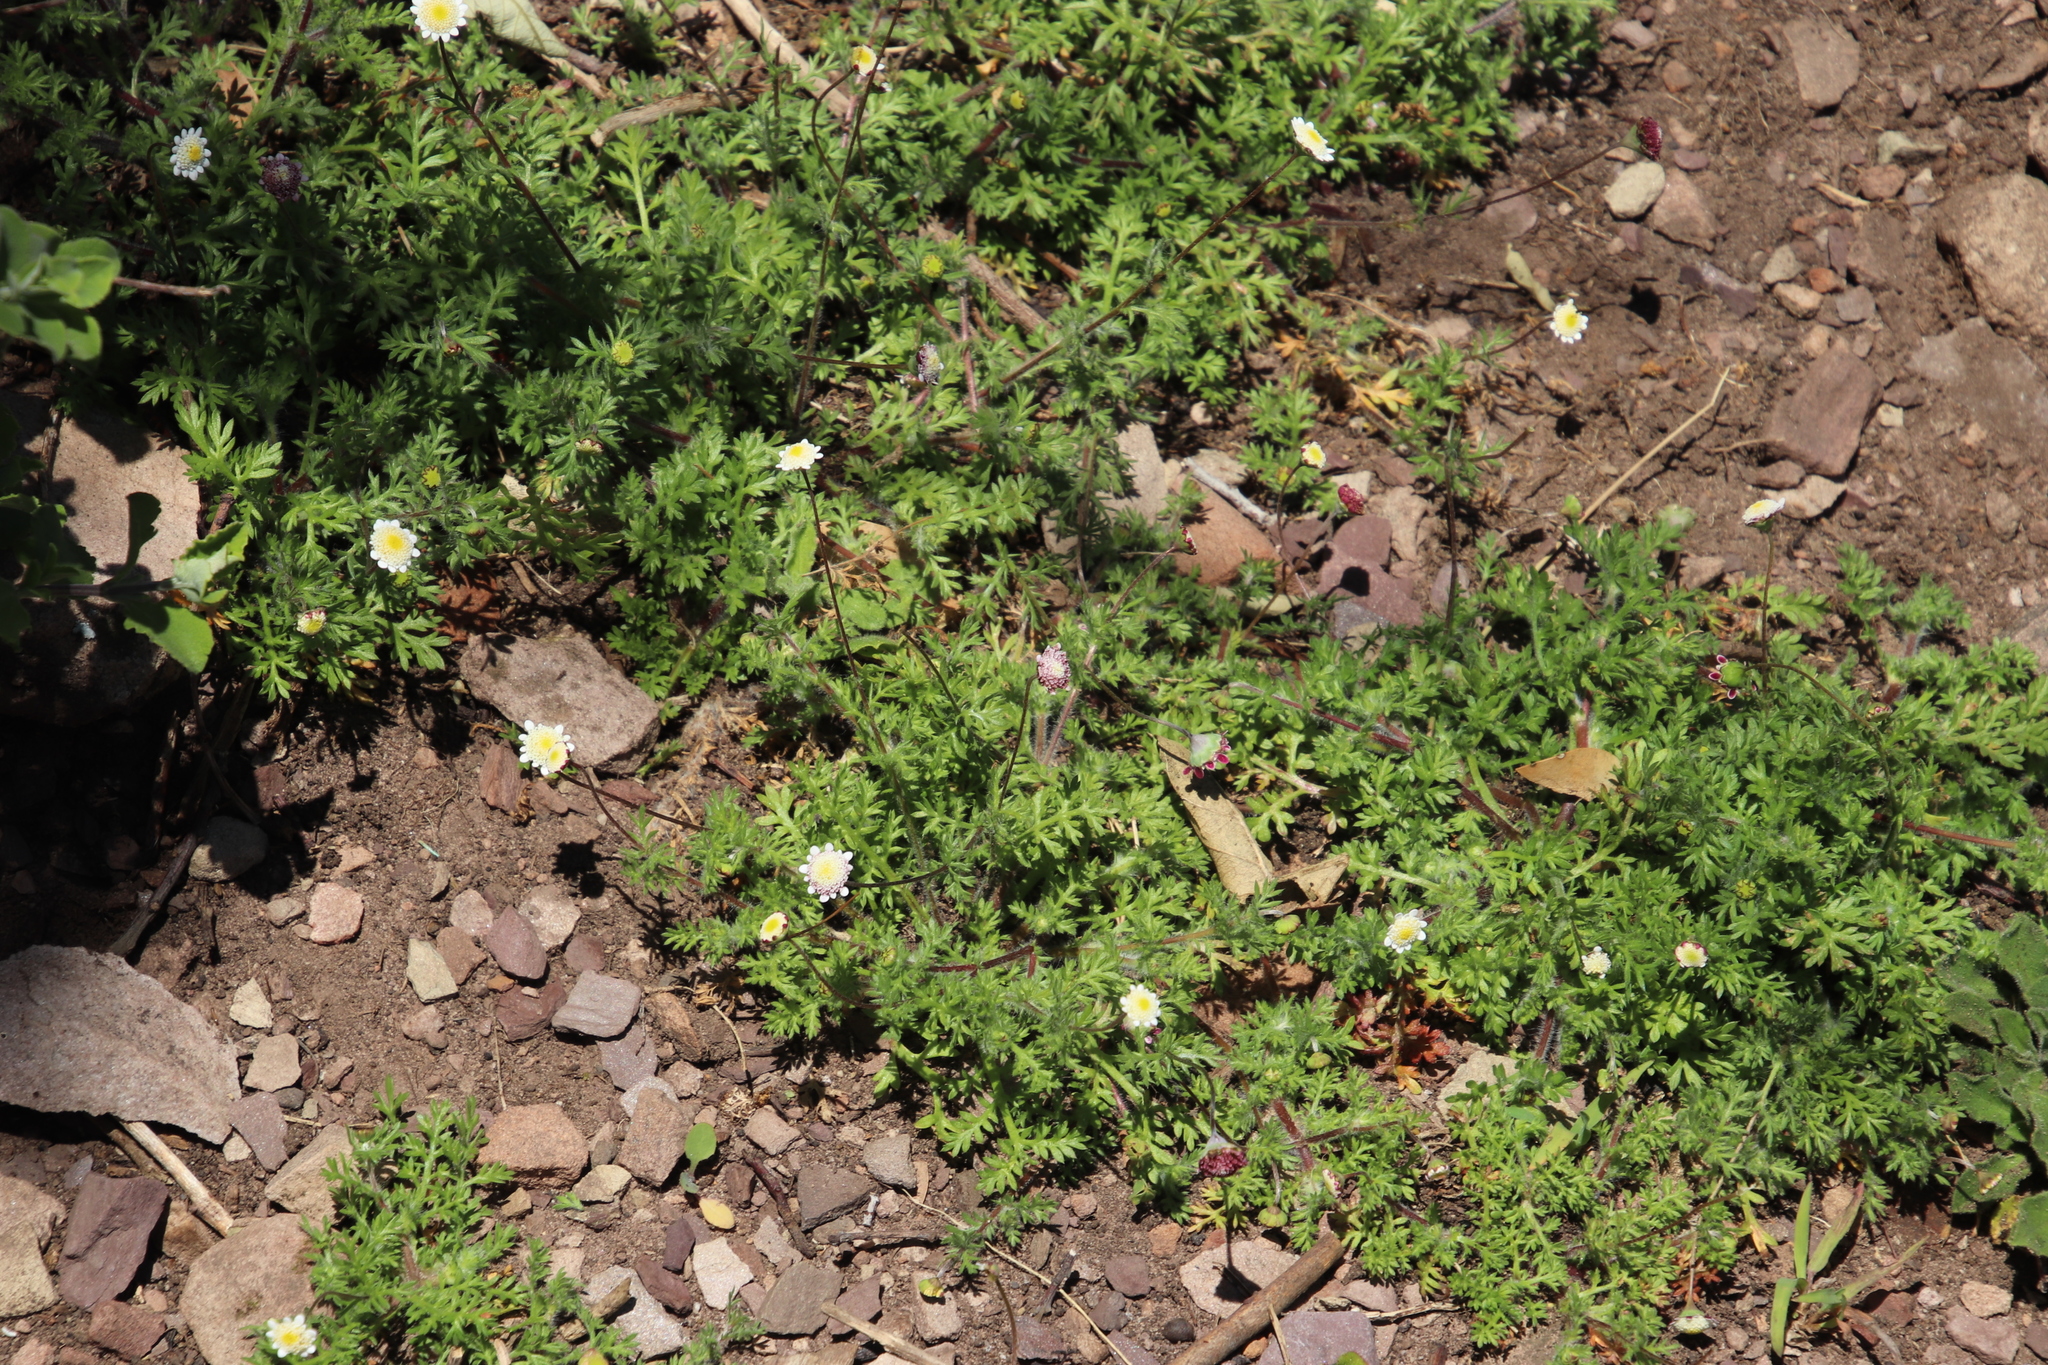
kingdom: Plantae
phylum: Tracheophyta
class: Magnoliopsida
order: Asterales
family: Asteraceae
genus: Cotula
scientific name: Cotula turbinata
